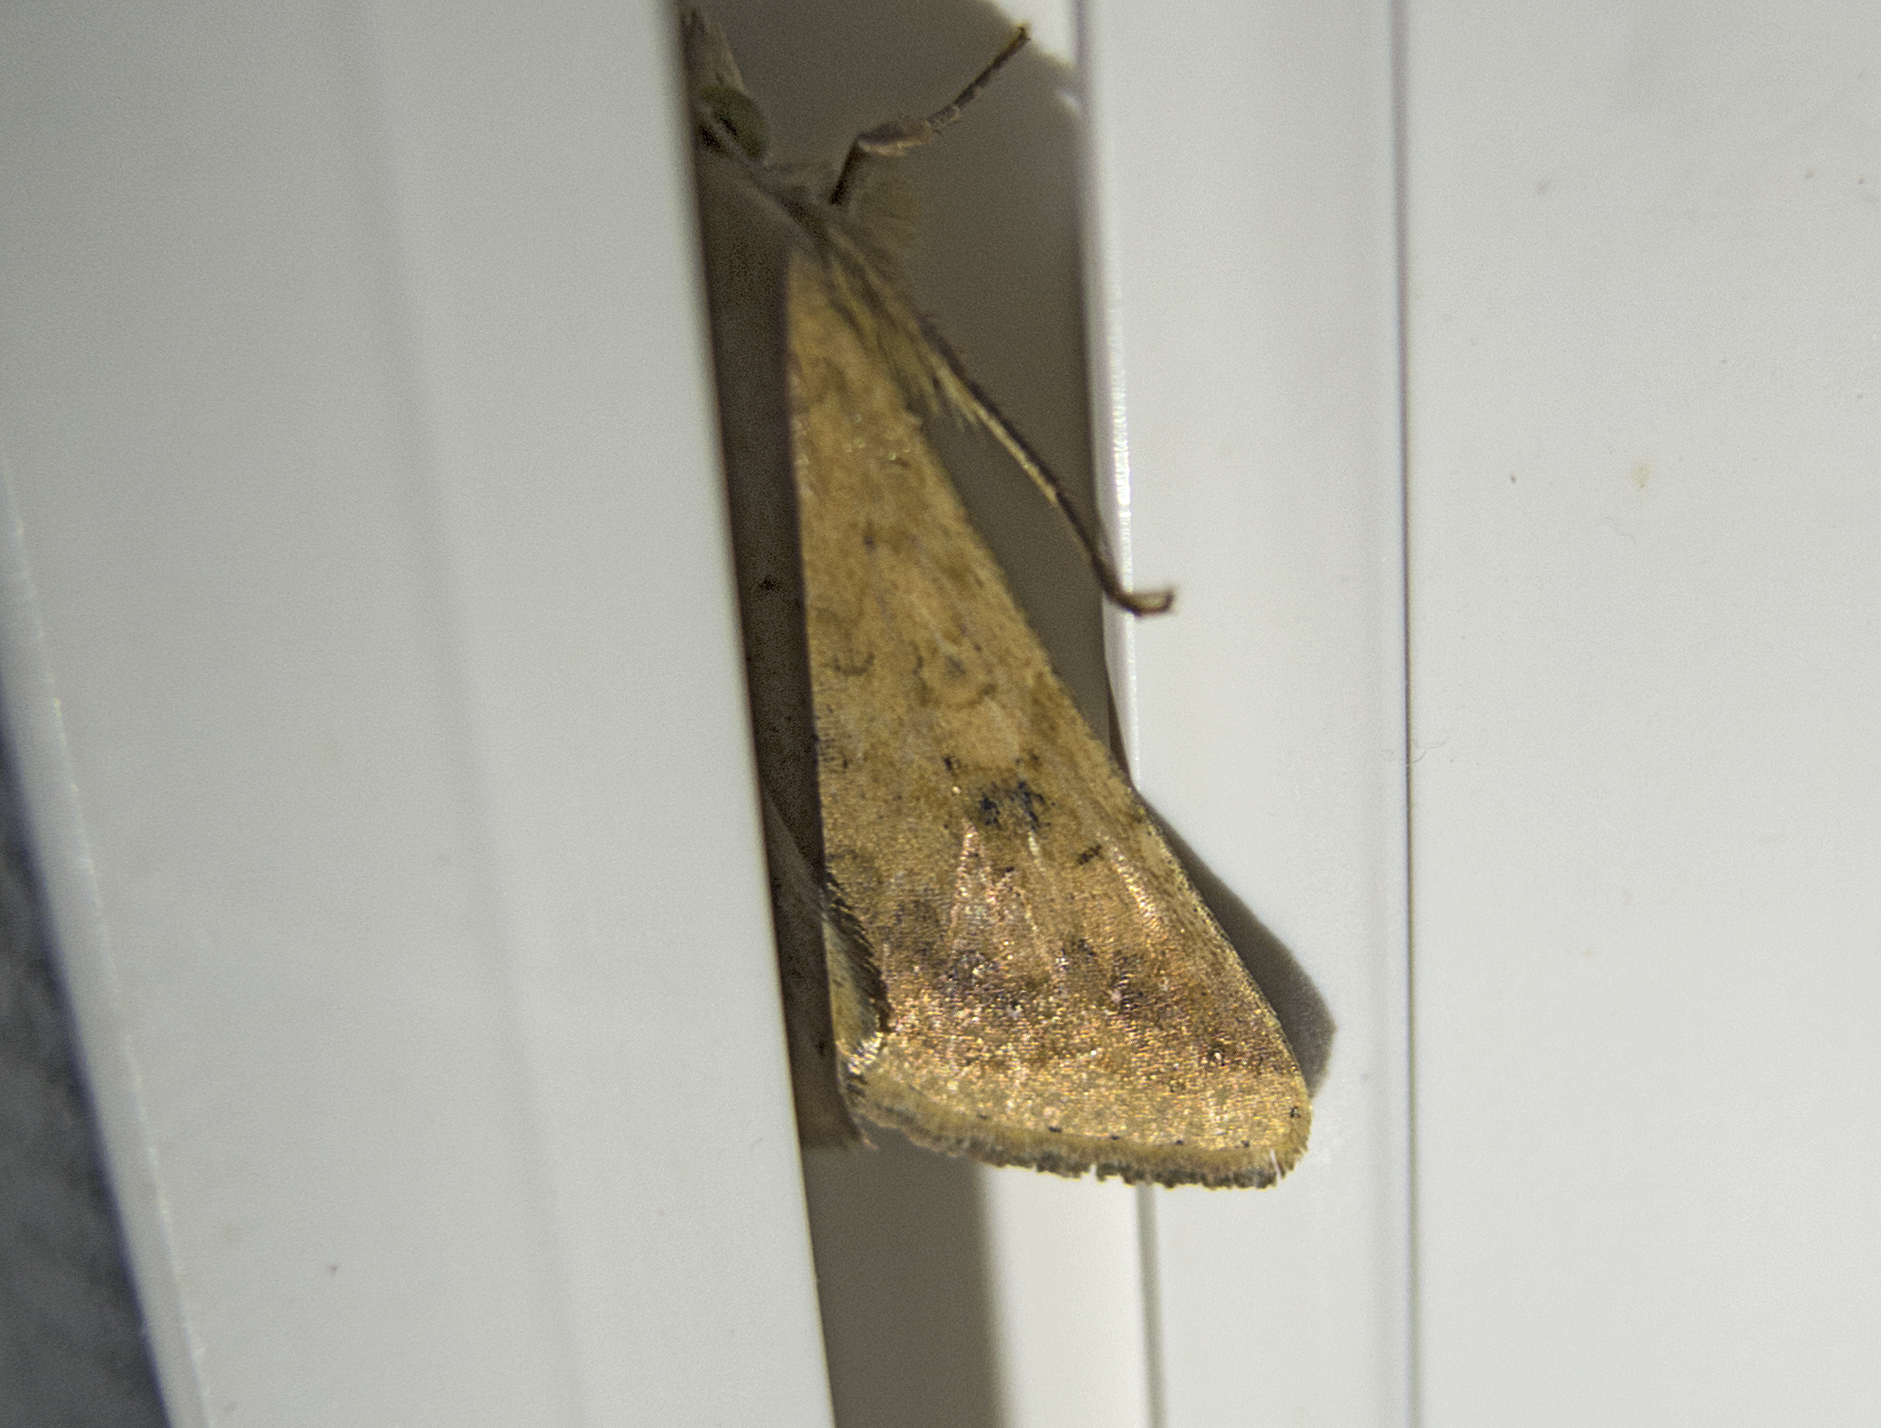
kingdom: Animalia
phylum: Arthropoda
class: Insecta
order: Lepidoptera
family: Noctuidae
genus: Helicoverpa
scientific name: Helicoverpa armigera
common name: Cotton bollworm
